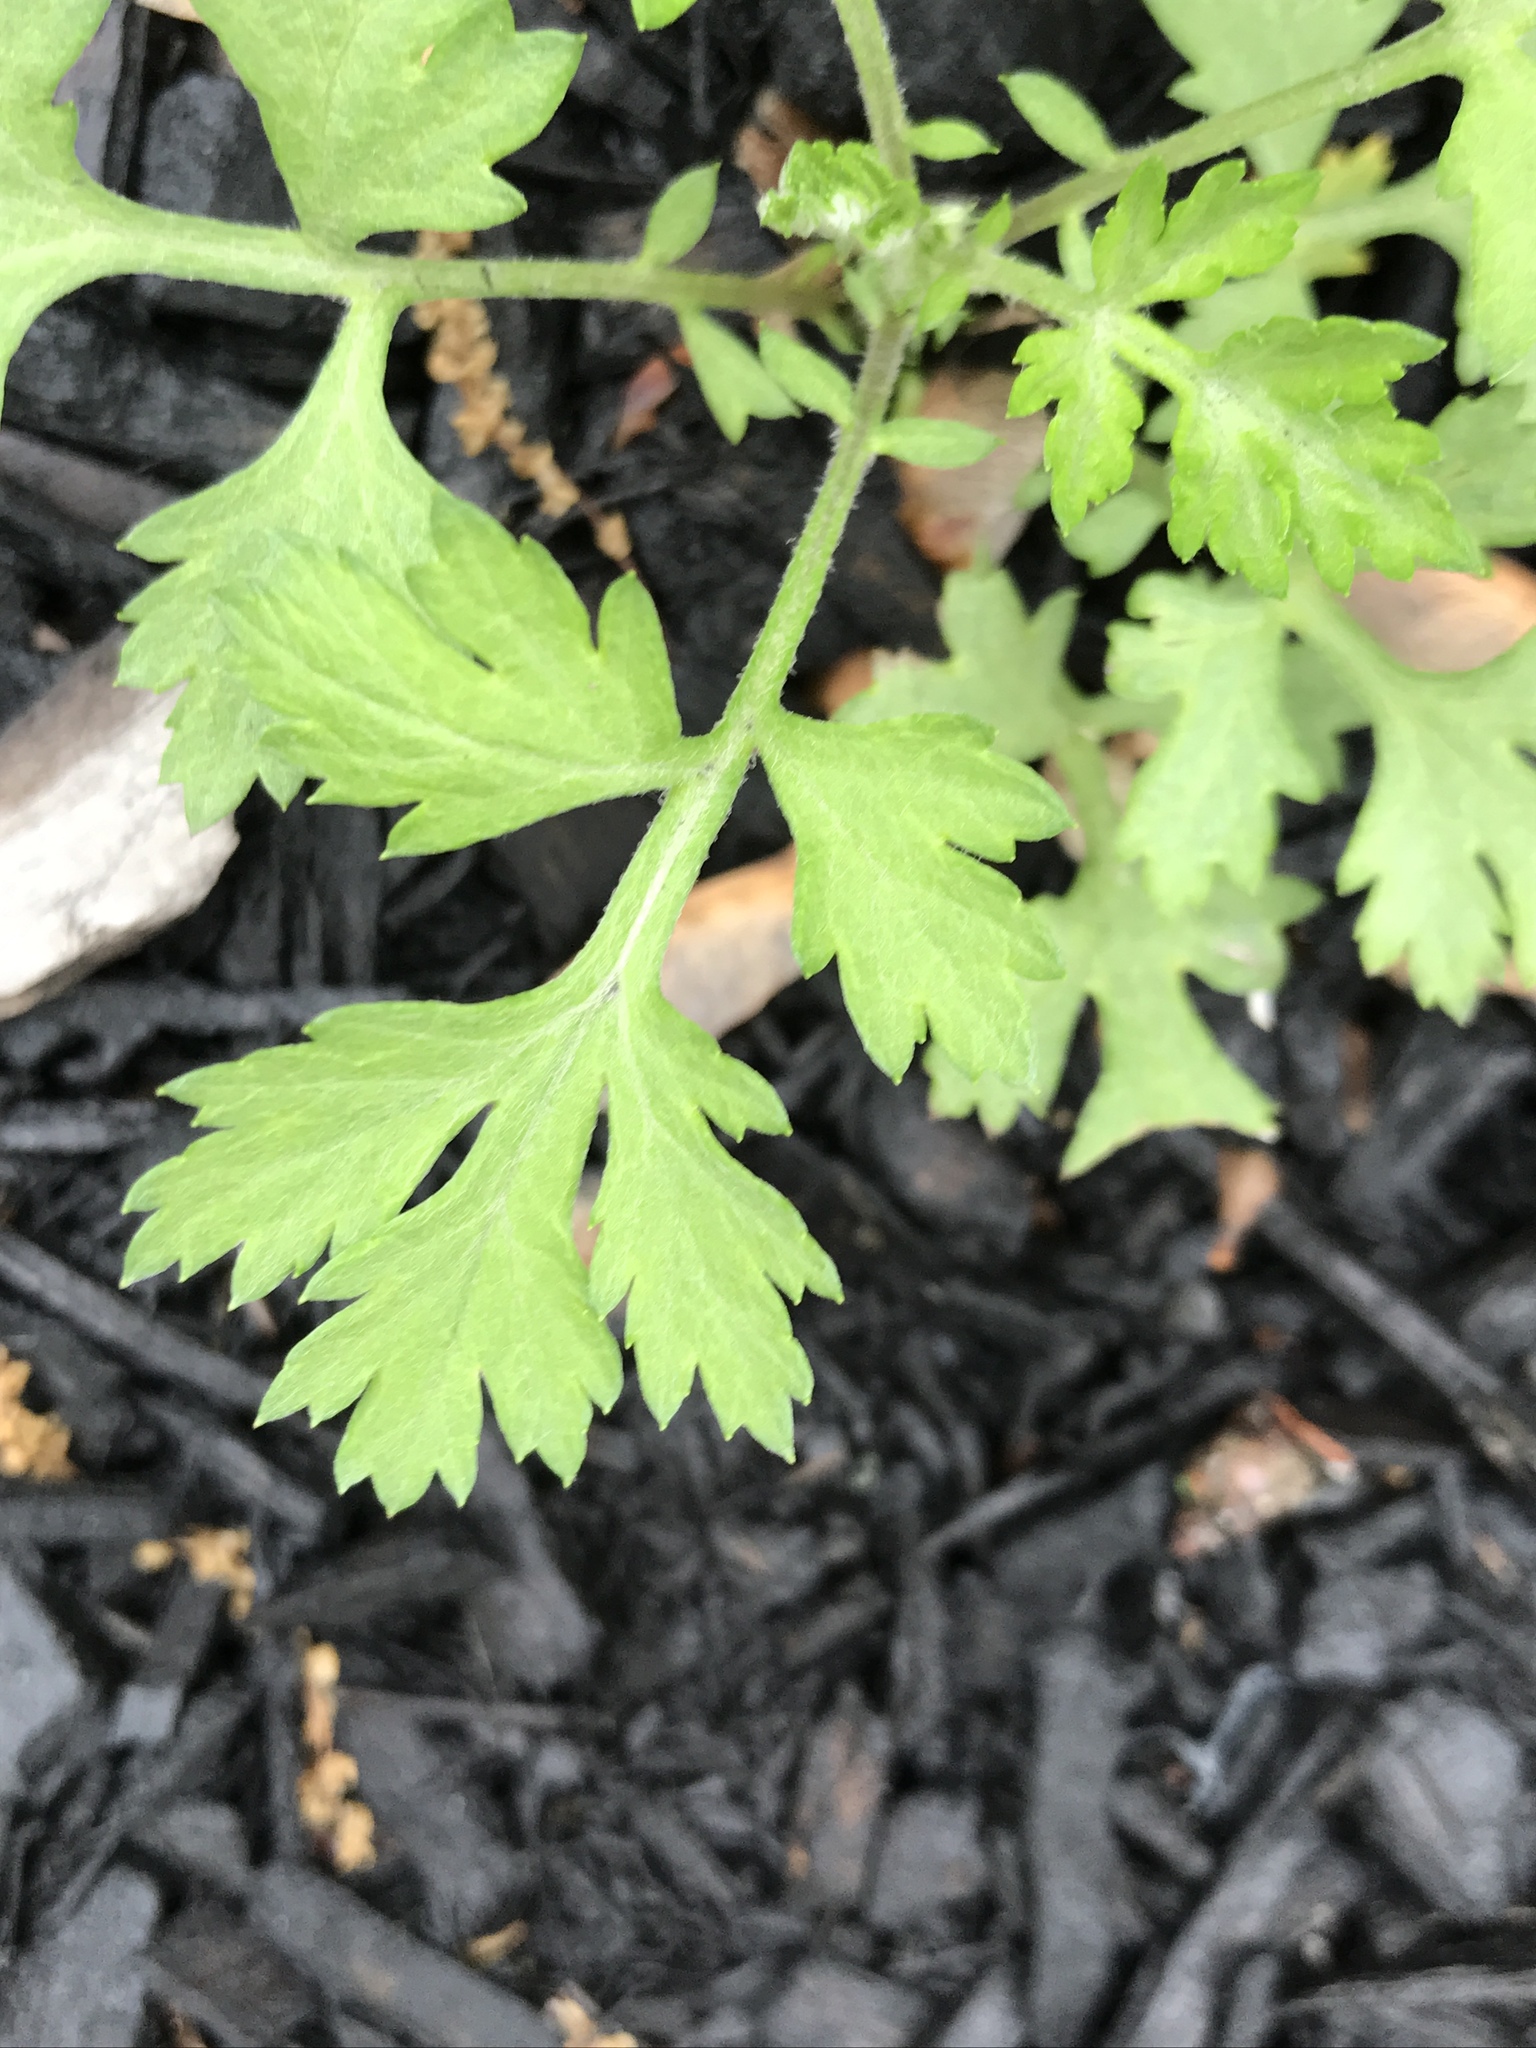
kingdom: Plantae
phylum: Tracheophyta
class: Magnoliopsida
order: Asterales
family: Asteraceae
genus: Artemisia
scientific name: Artemisia vulgaris
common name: Mugwort
